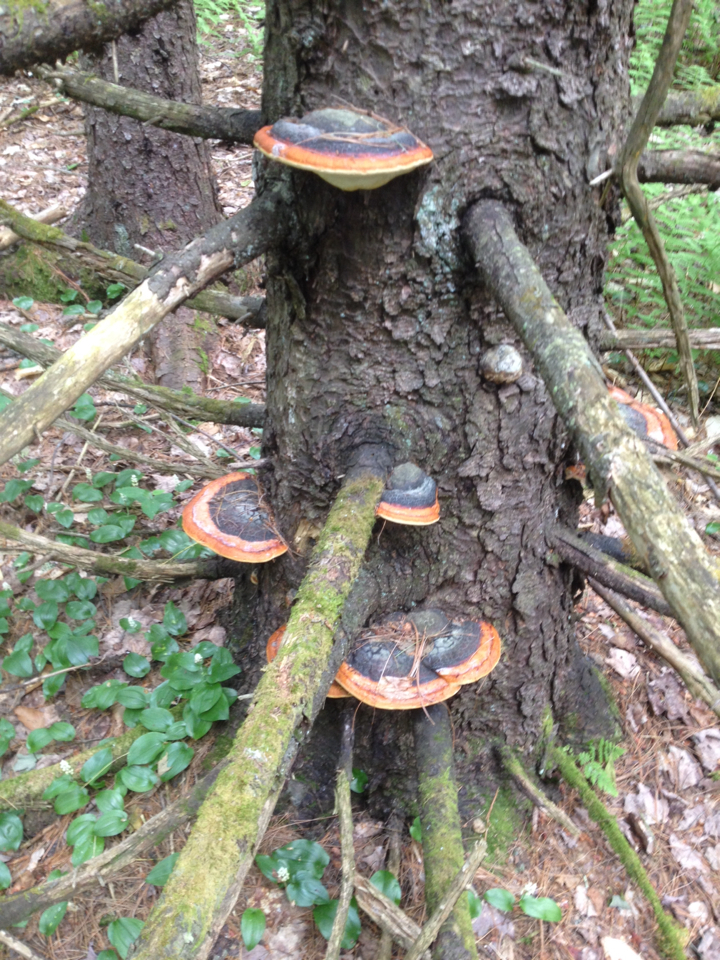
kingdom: Fungi
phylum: Basidiomycota
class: Agaricomycetes
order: Polyporales
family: Fomitopsidaceae
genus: Fomitopsis
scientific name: Fomitopsis mounceae
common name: Northern red belt
